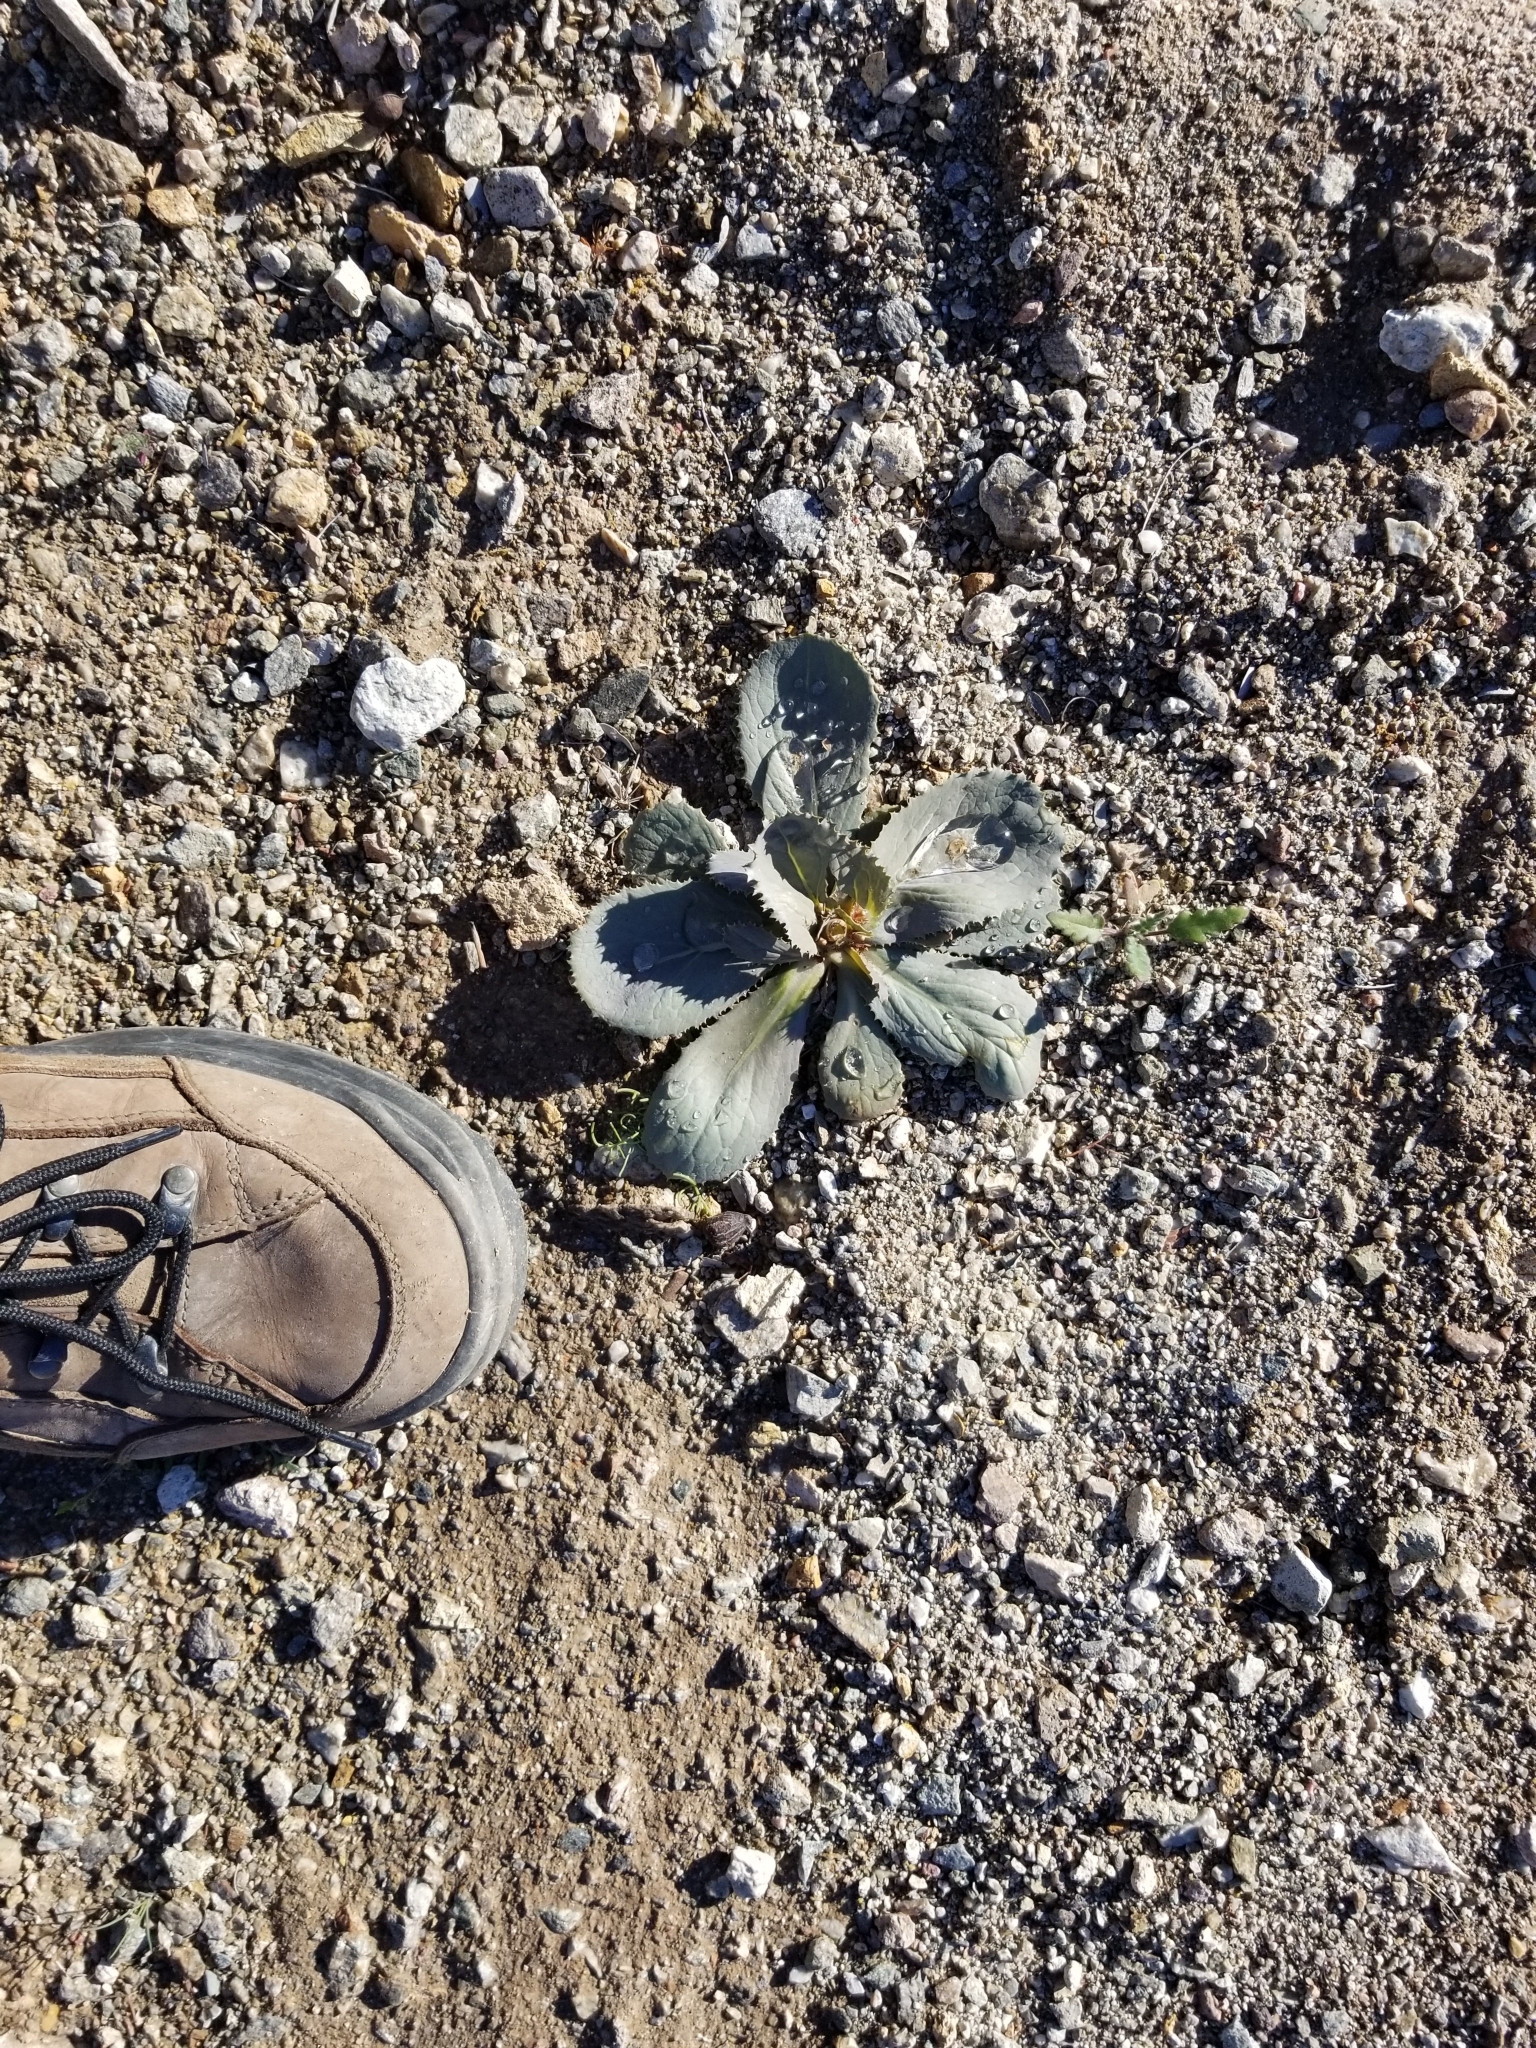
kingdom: Plantae
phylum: Tracheophyta
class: Magnoliopsida
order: Asterales
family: Asteraceae
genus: Atrichoseris
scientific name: Atrichoseris platyphylla
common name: Tobaccoweed
